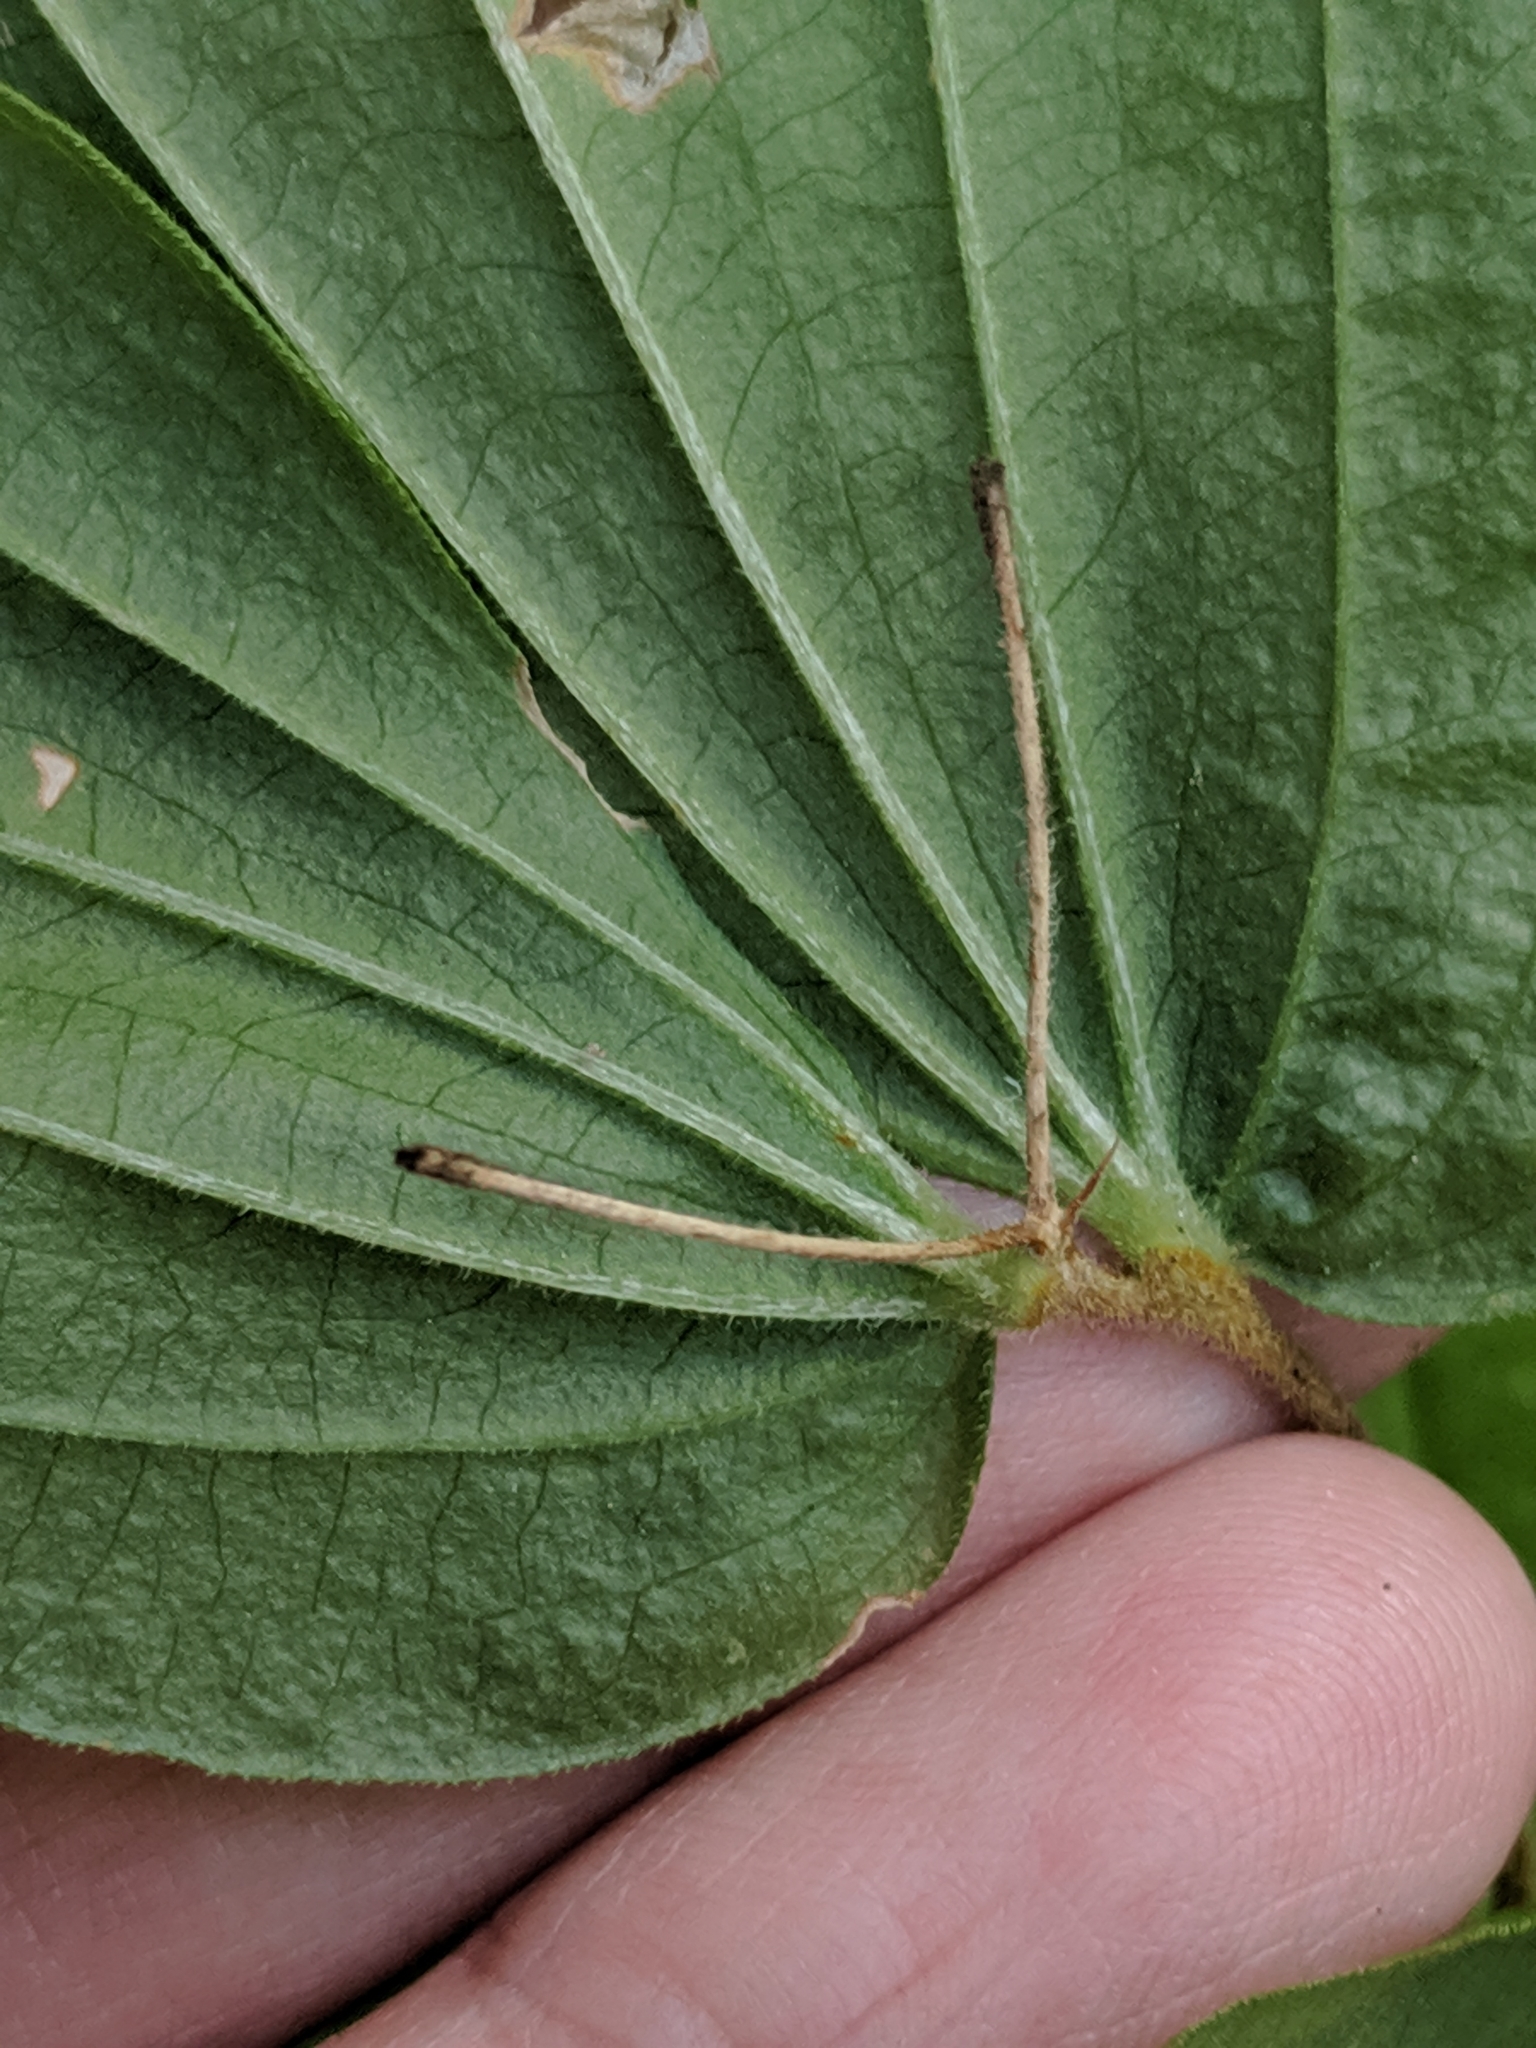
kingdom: Plantae
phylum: Tracheophyta
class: Liliopsida
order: Liliales
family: Liliaceae
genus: Prosartes
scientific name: Prosartes hookeri
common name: Fairy-bells
